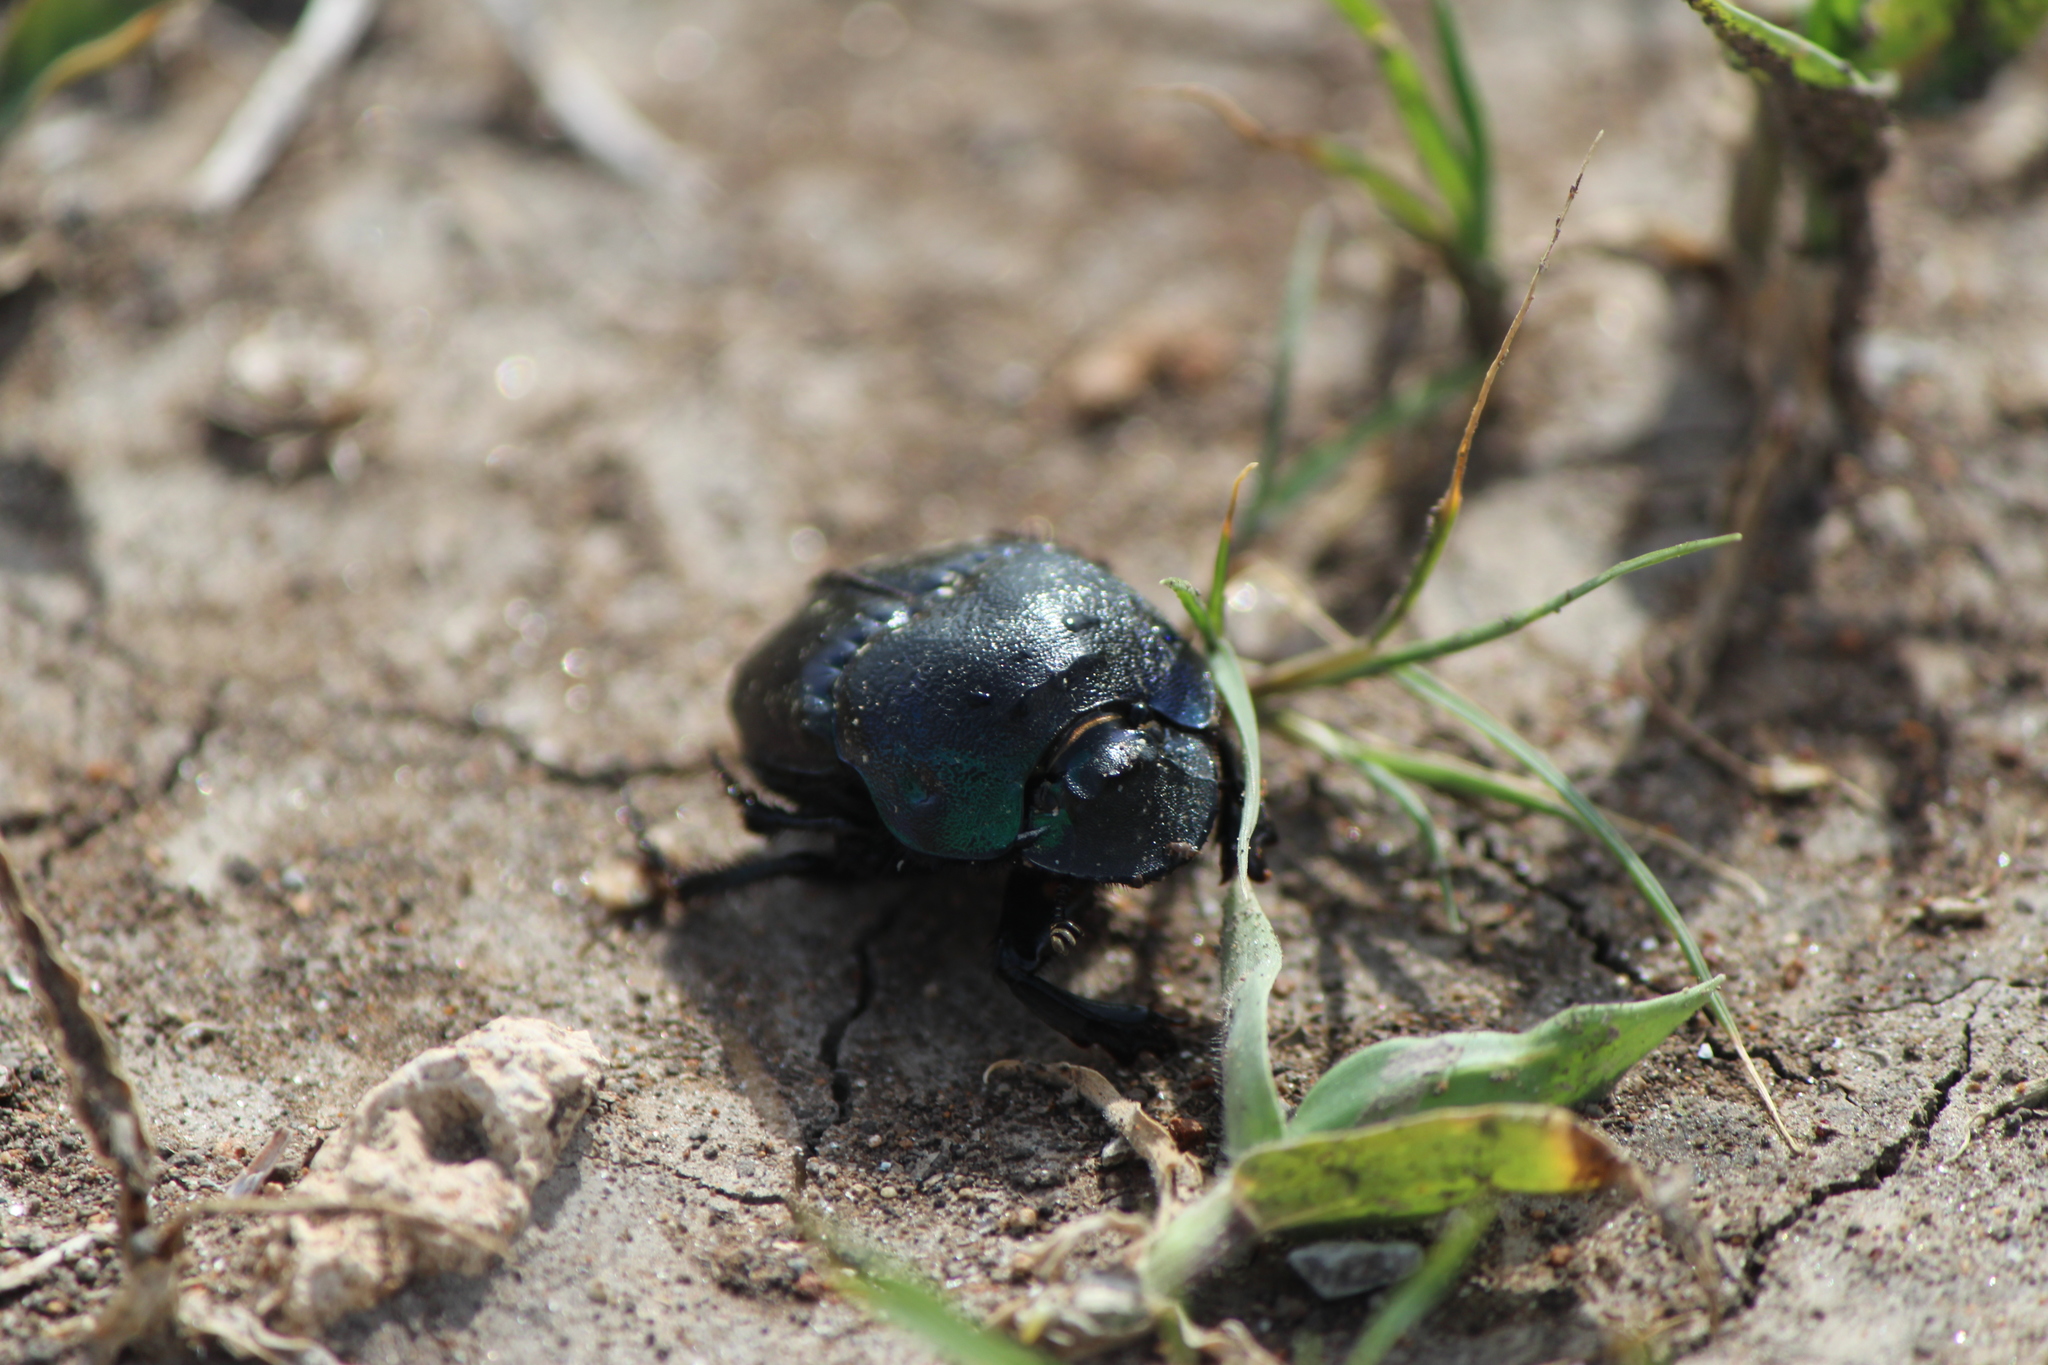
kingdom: Animalia
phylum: Arthropoda
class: Insecta
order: Coleoptera
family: Scarabaeidae
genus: Phanaeus
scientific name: Phanaeus quadridens
